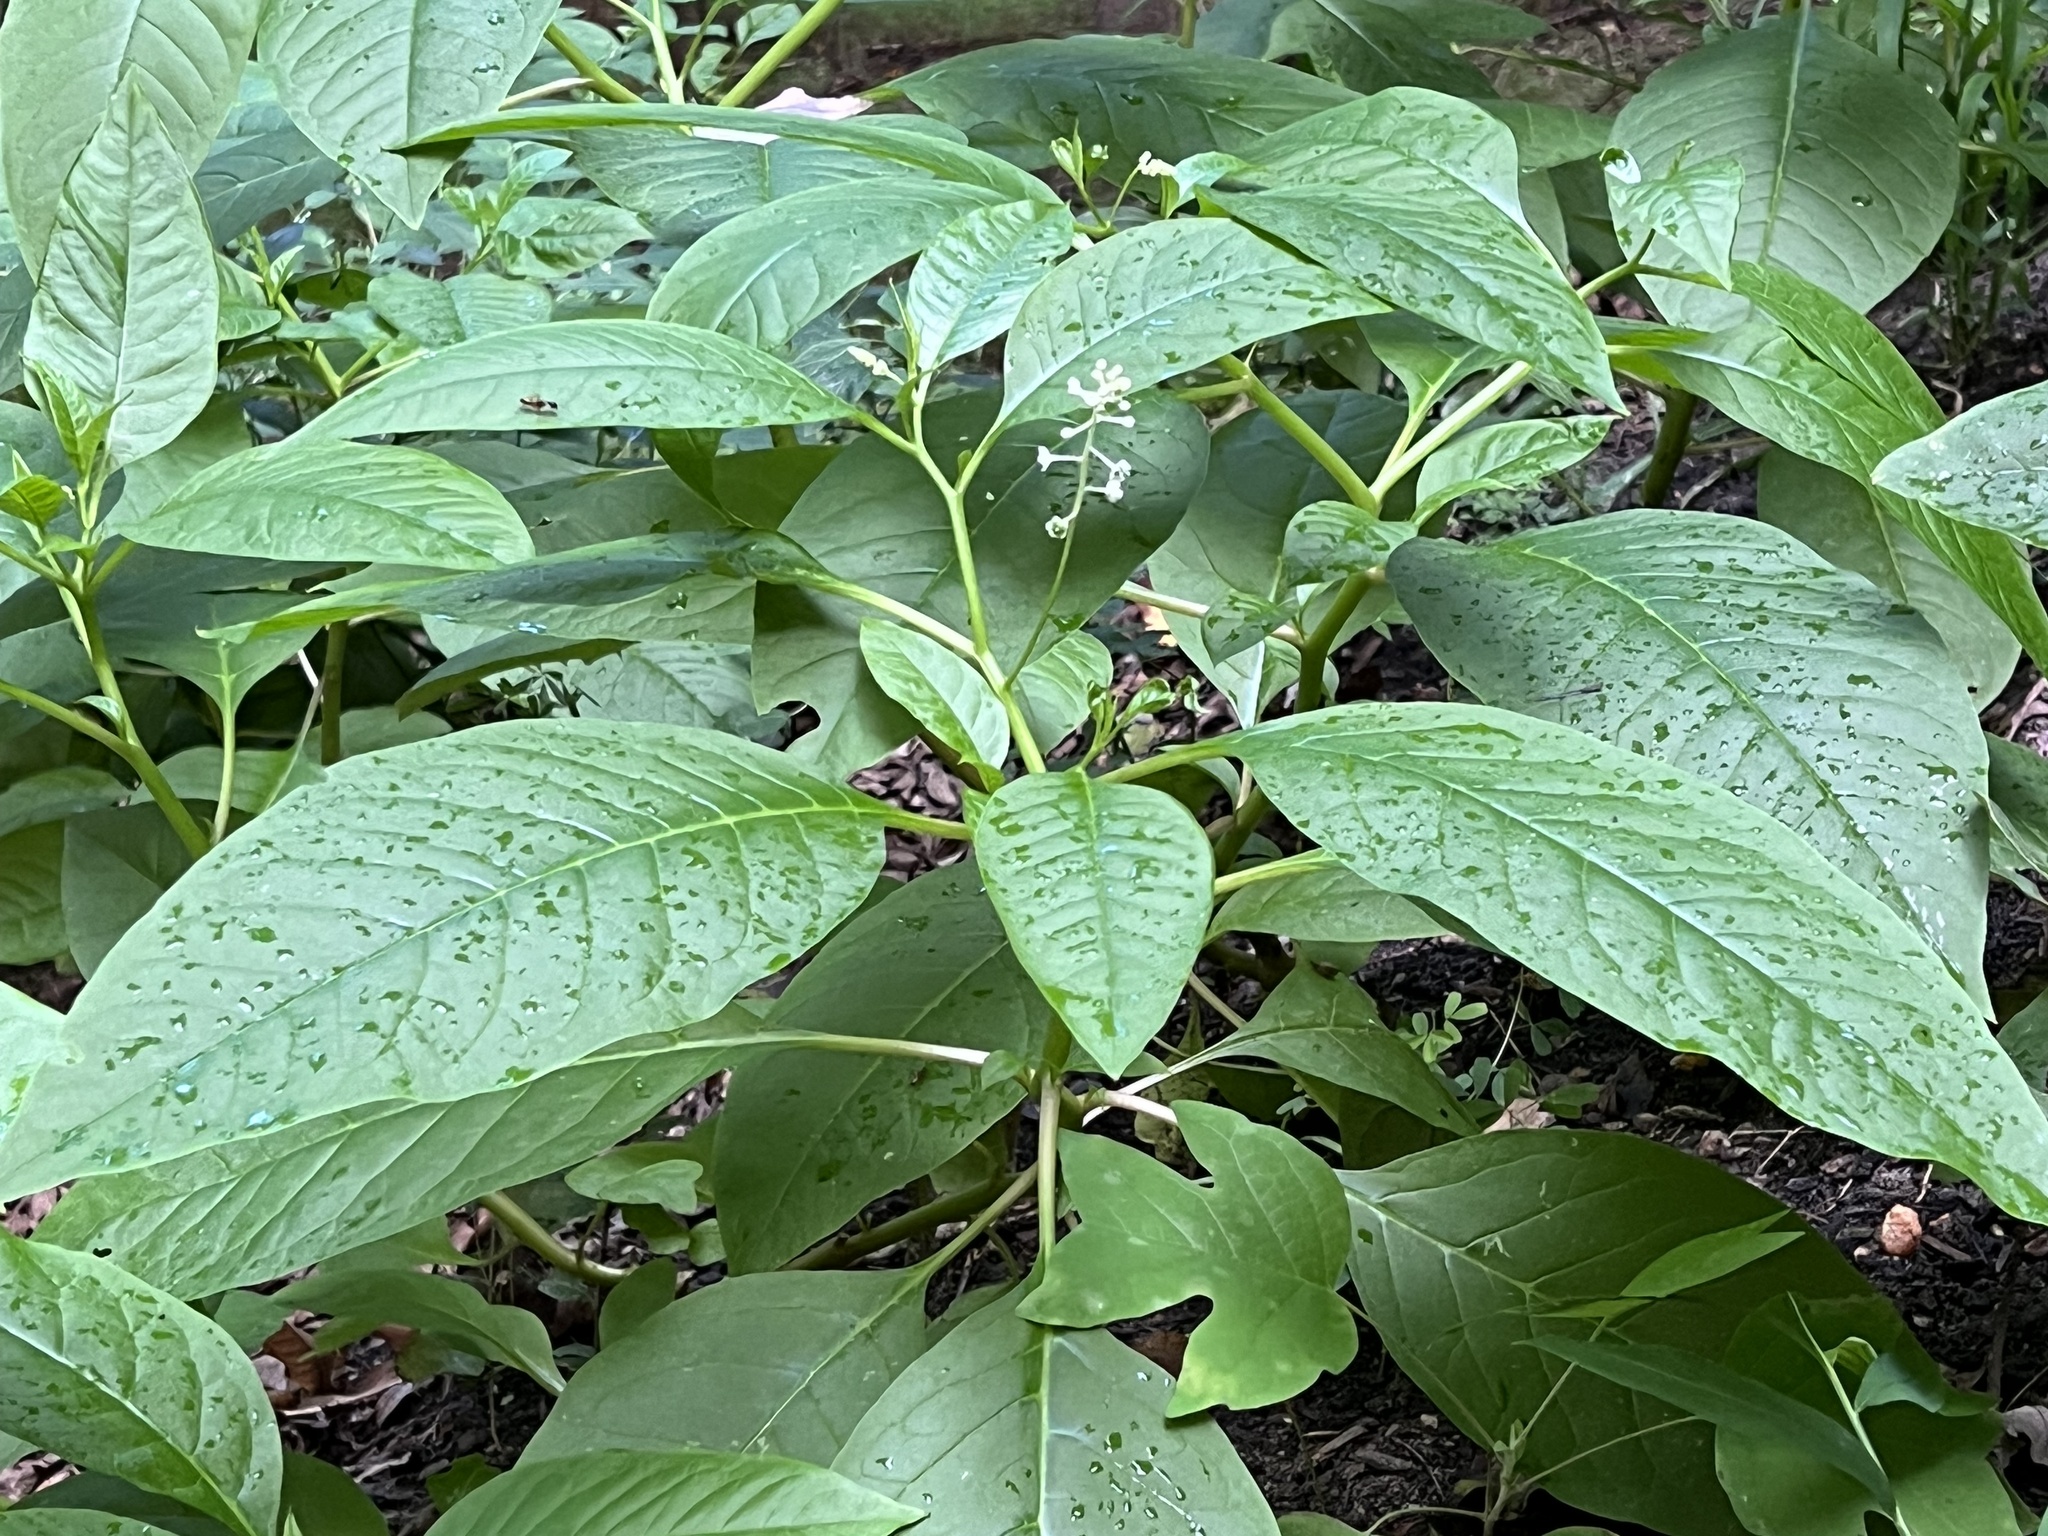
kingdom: Plantae
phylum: Tracheophyta
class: Magnoliopsida
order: Caryophyllales
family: Phytolaccaceae
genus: Phytolacca
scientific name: Phytolacca americana
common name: American pokeweed
